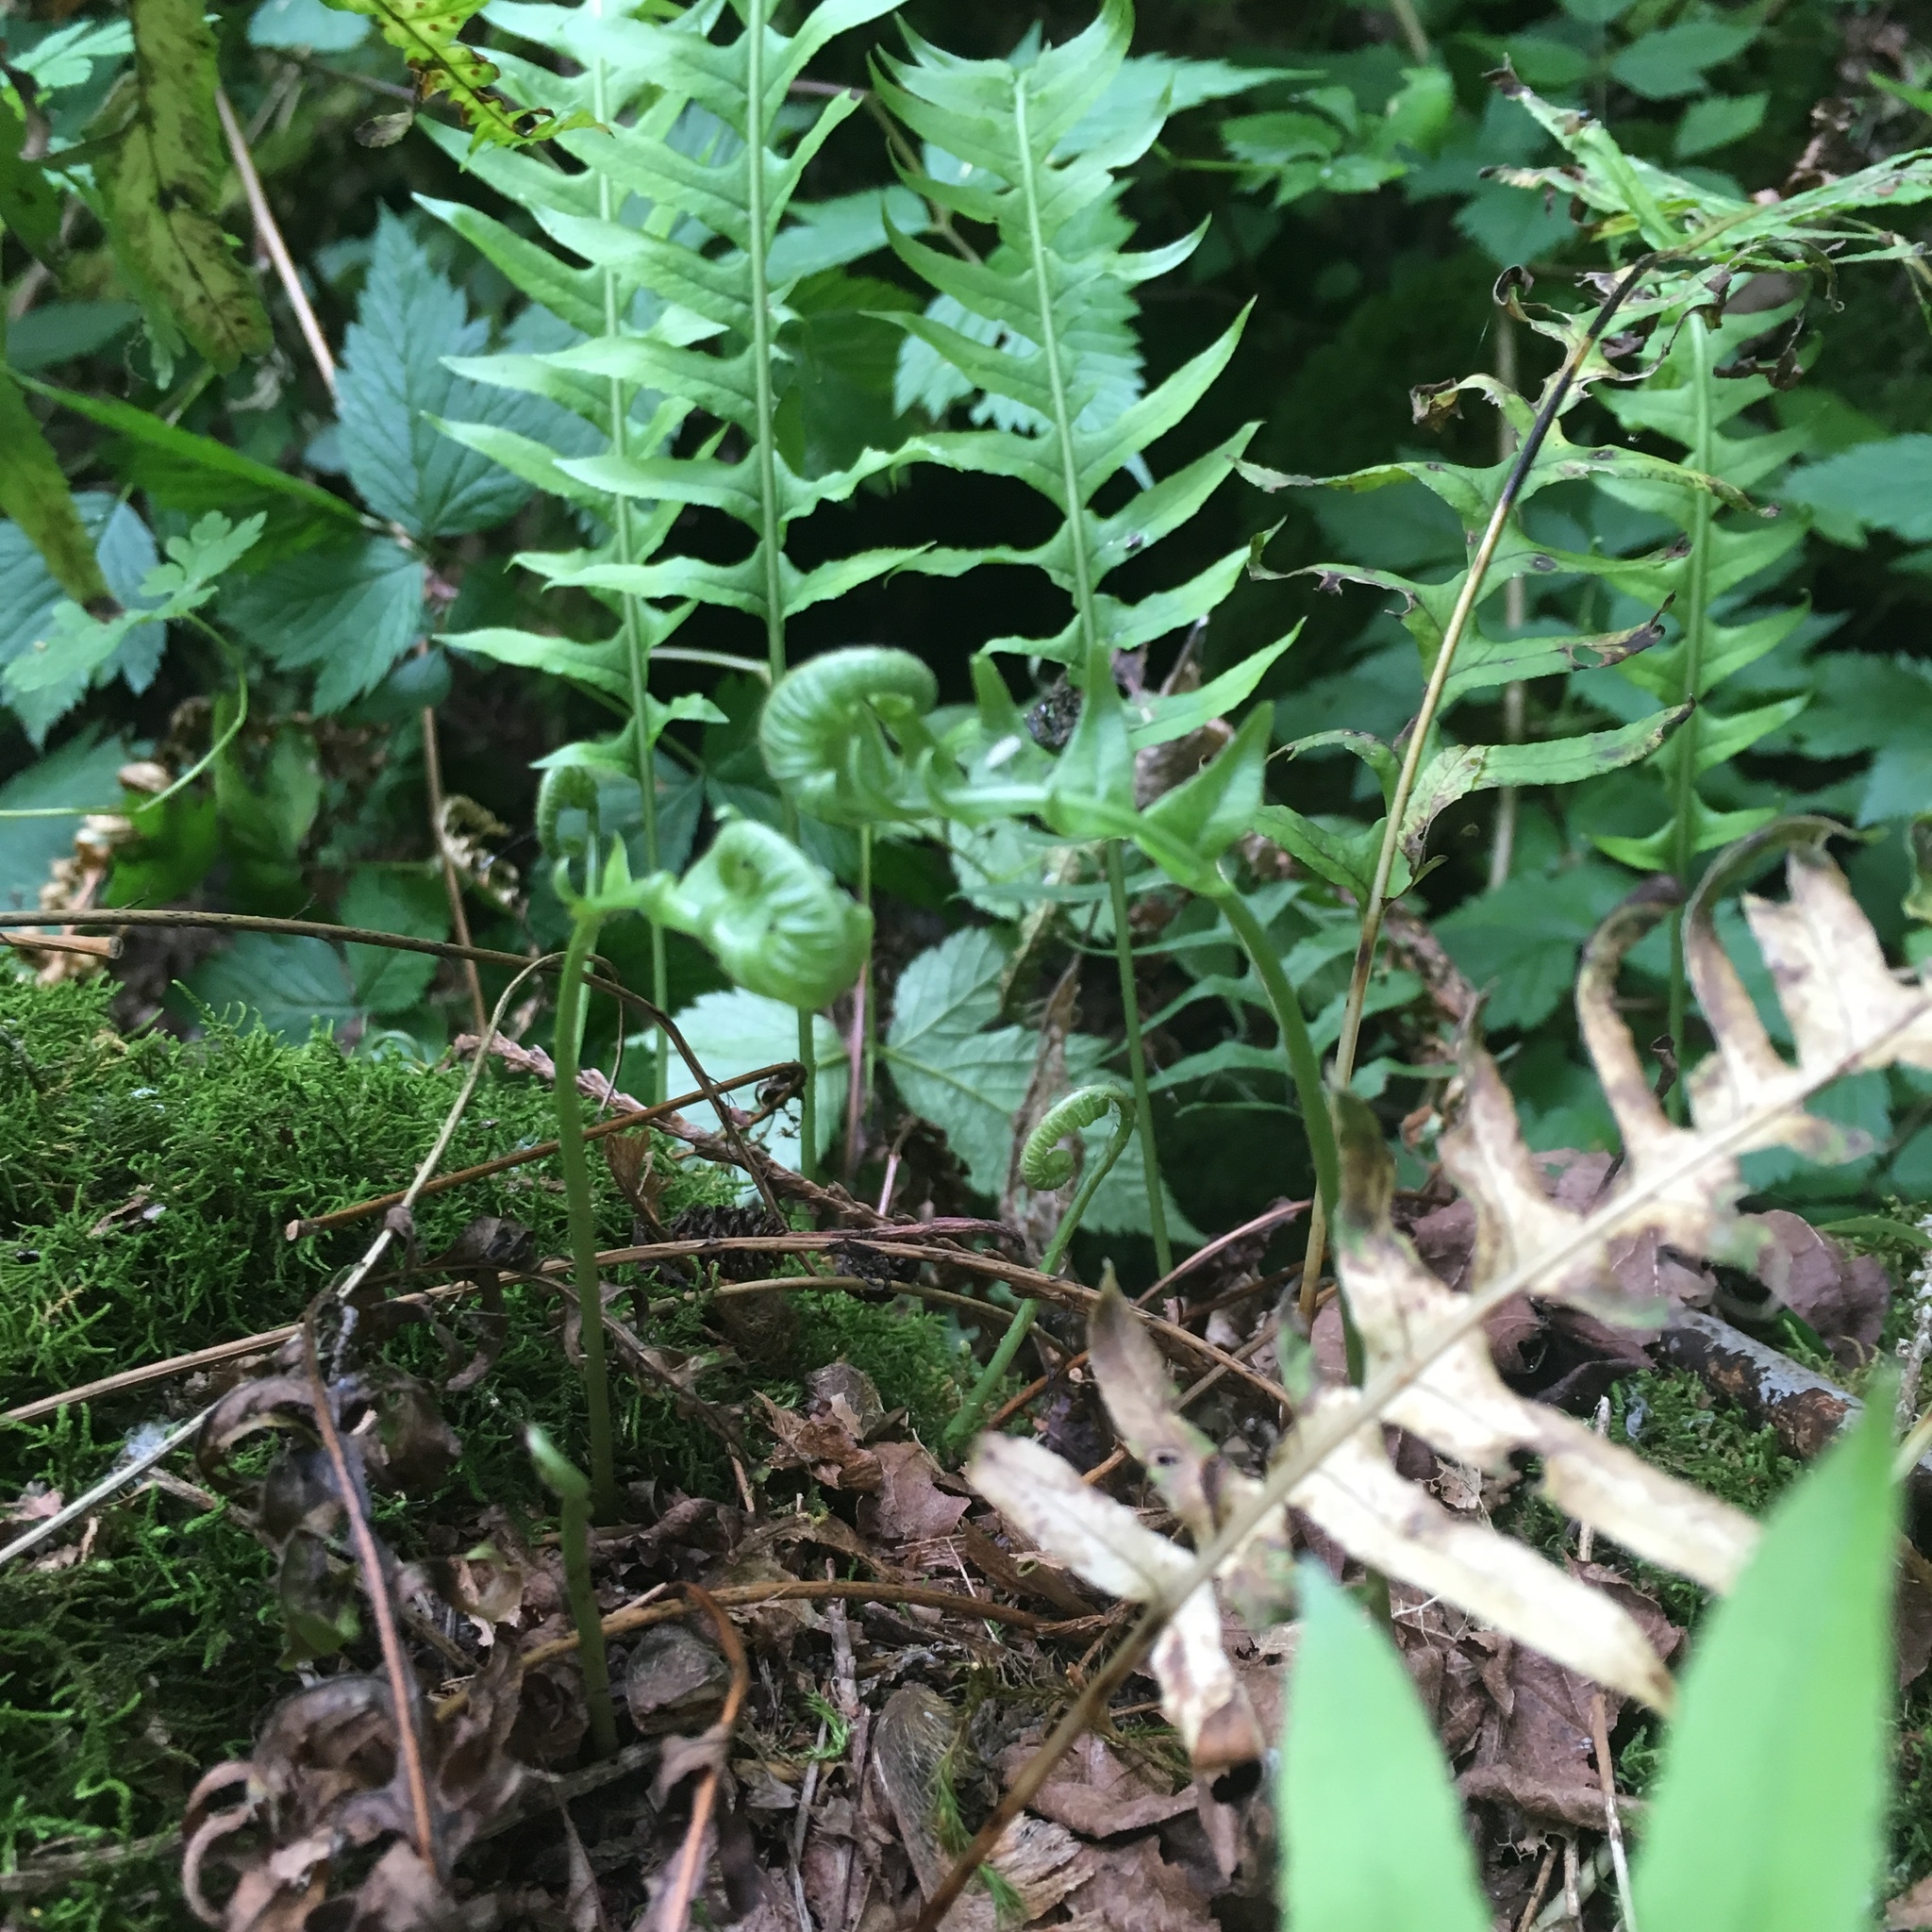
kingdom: Plantae
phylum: Tracheophyta
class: Polypodiopsida
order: Polypodiales
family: Polypodiaceae
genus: Polypodium
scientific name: Polypodium glycyrrhiza
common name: Licorice fern
